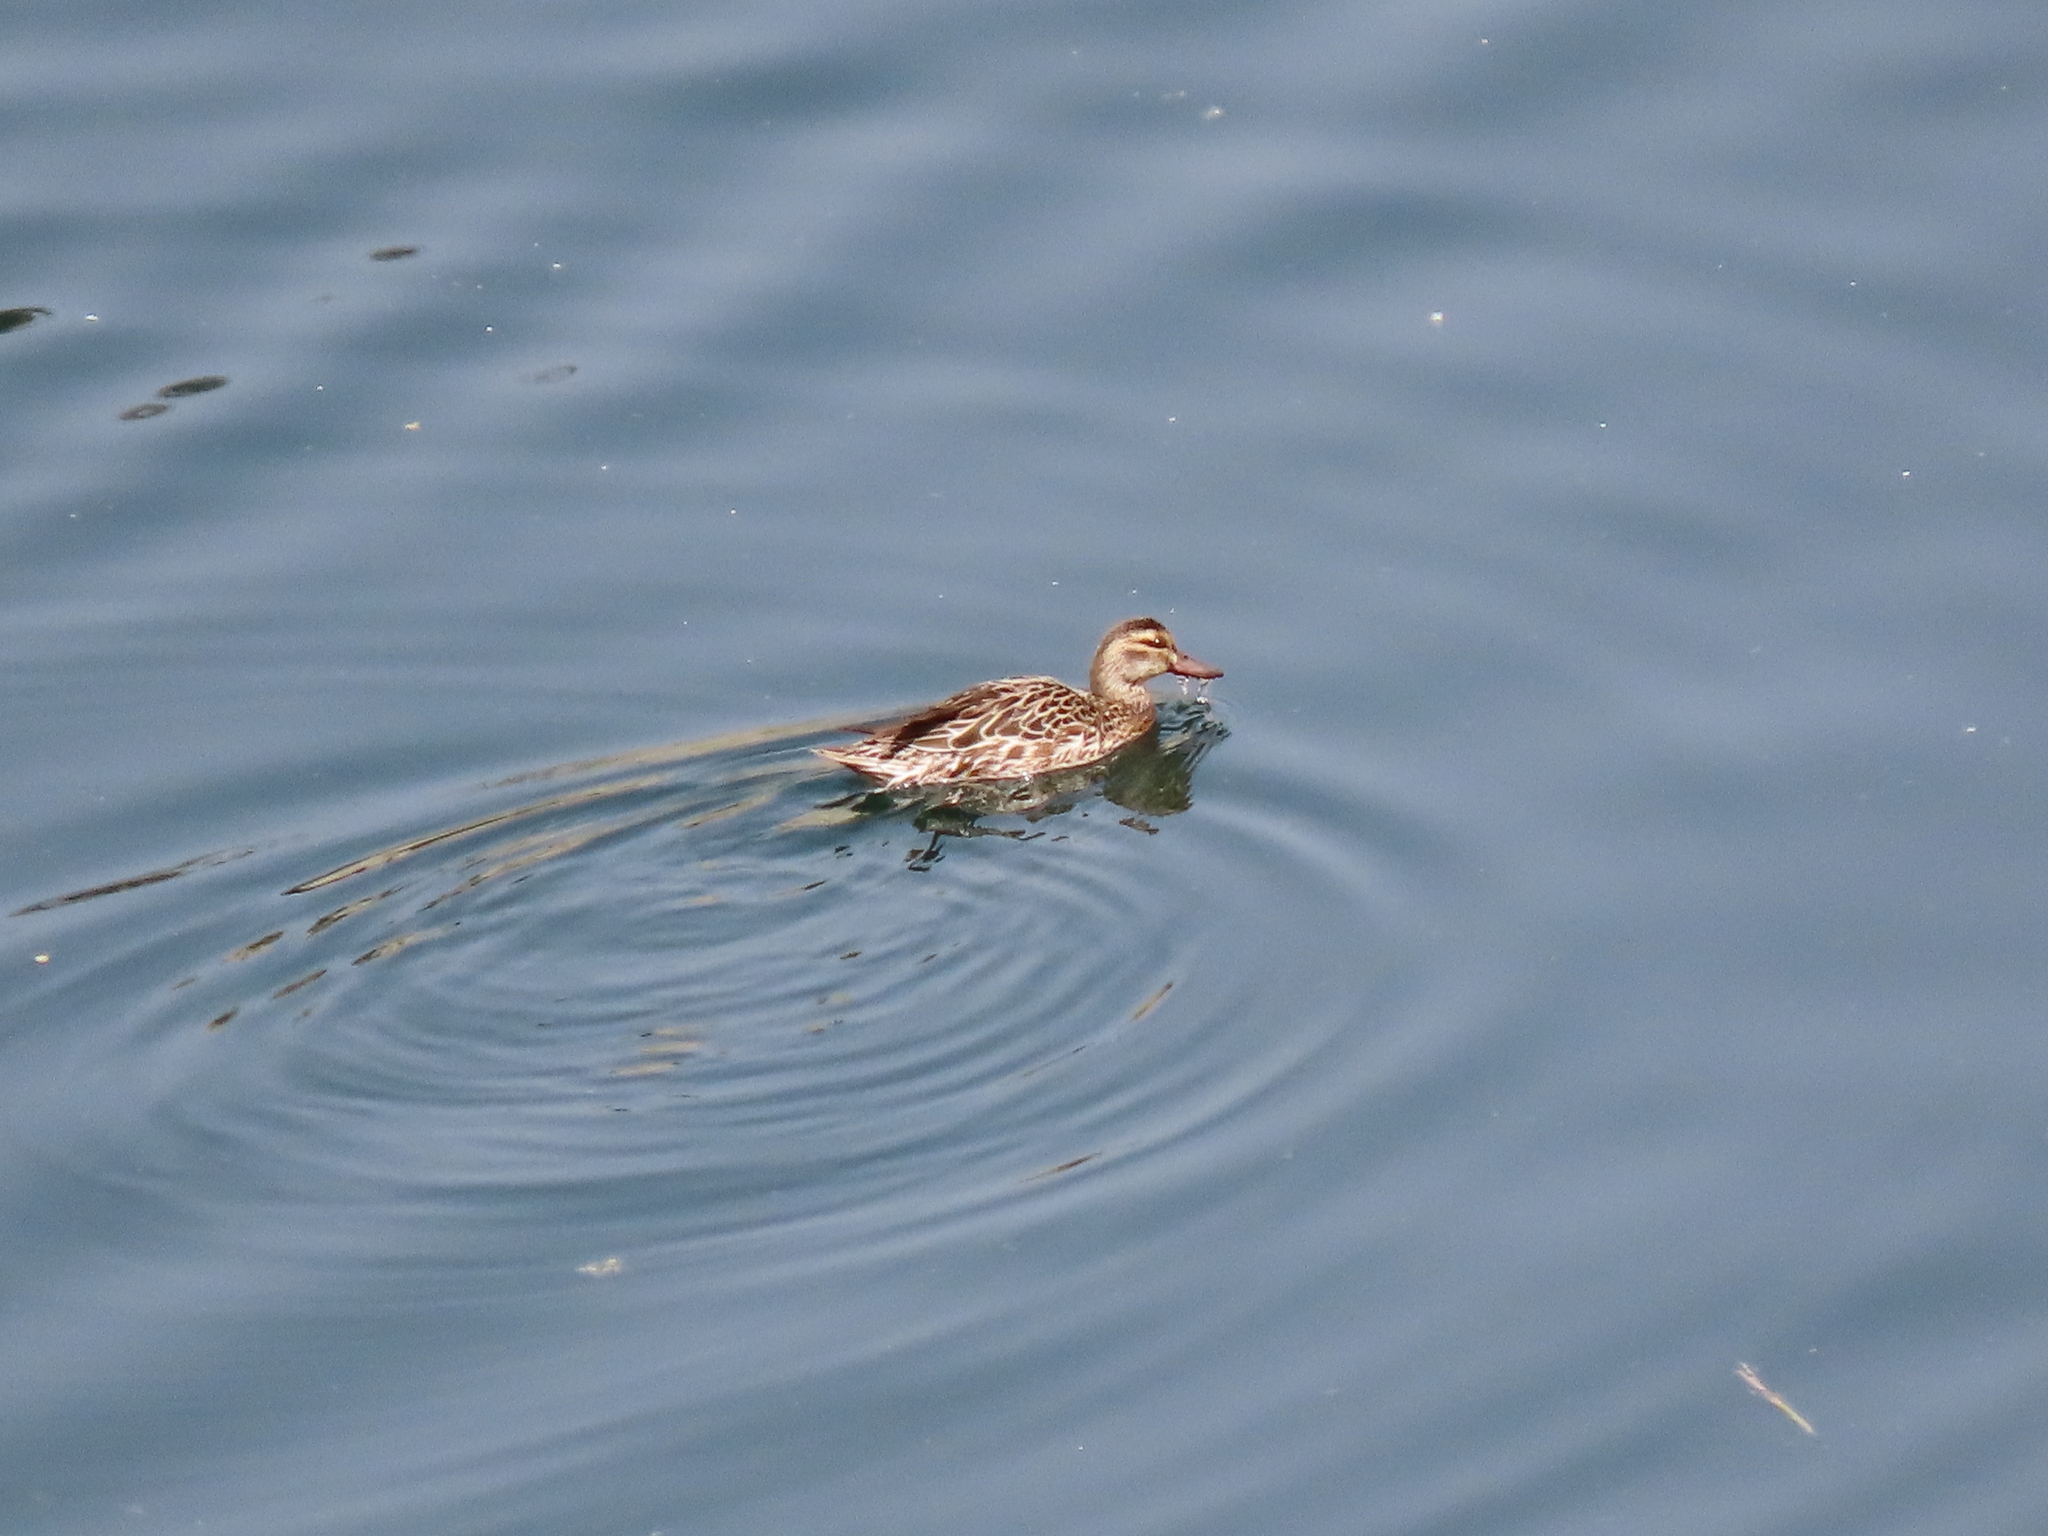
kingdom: Animalia
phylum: Chordata
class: Aves
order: Anseriformes
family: Anatidae
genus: Spatula
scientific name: Spatula querquedula
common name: Garganey
